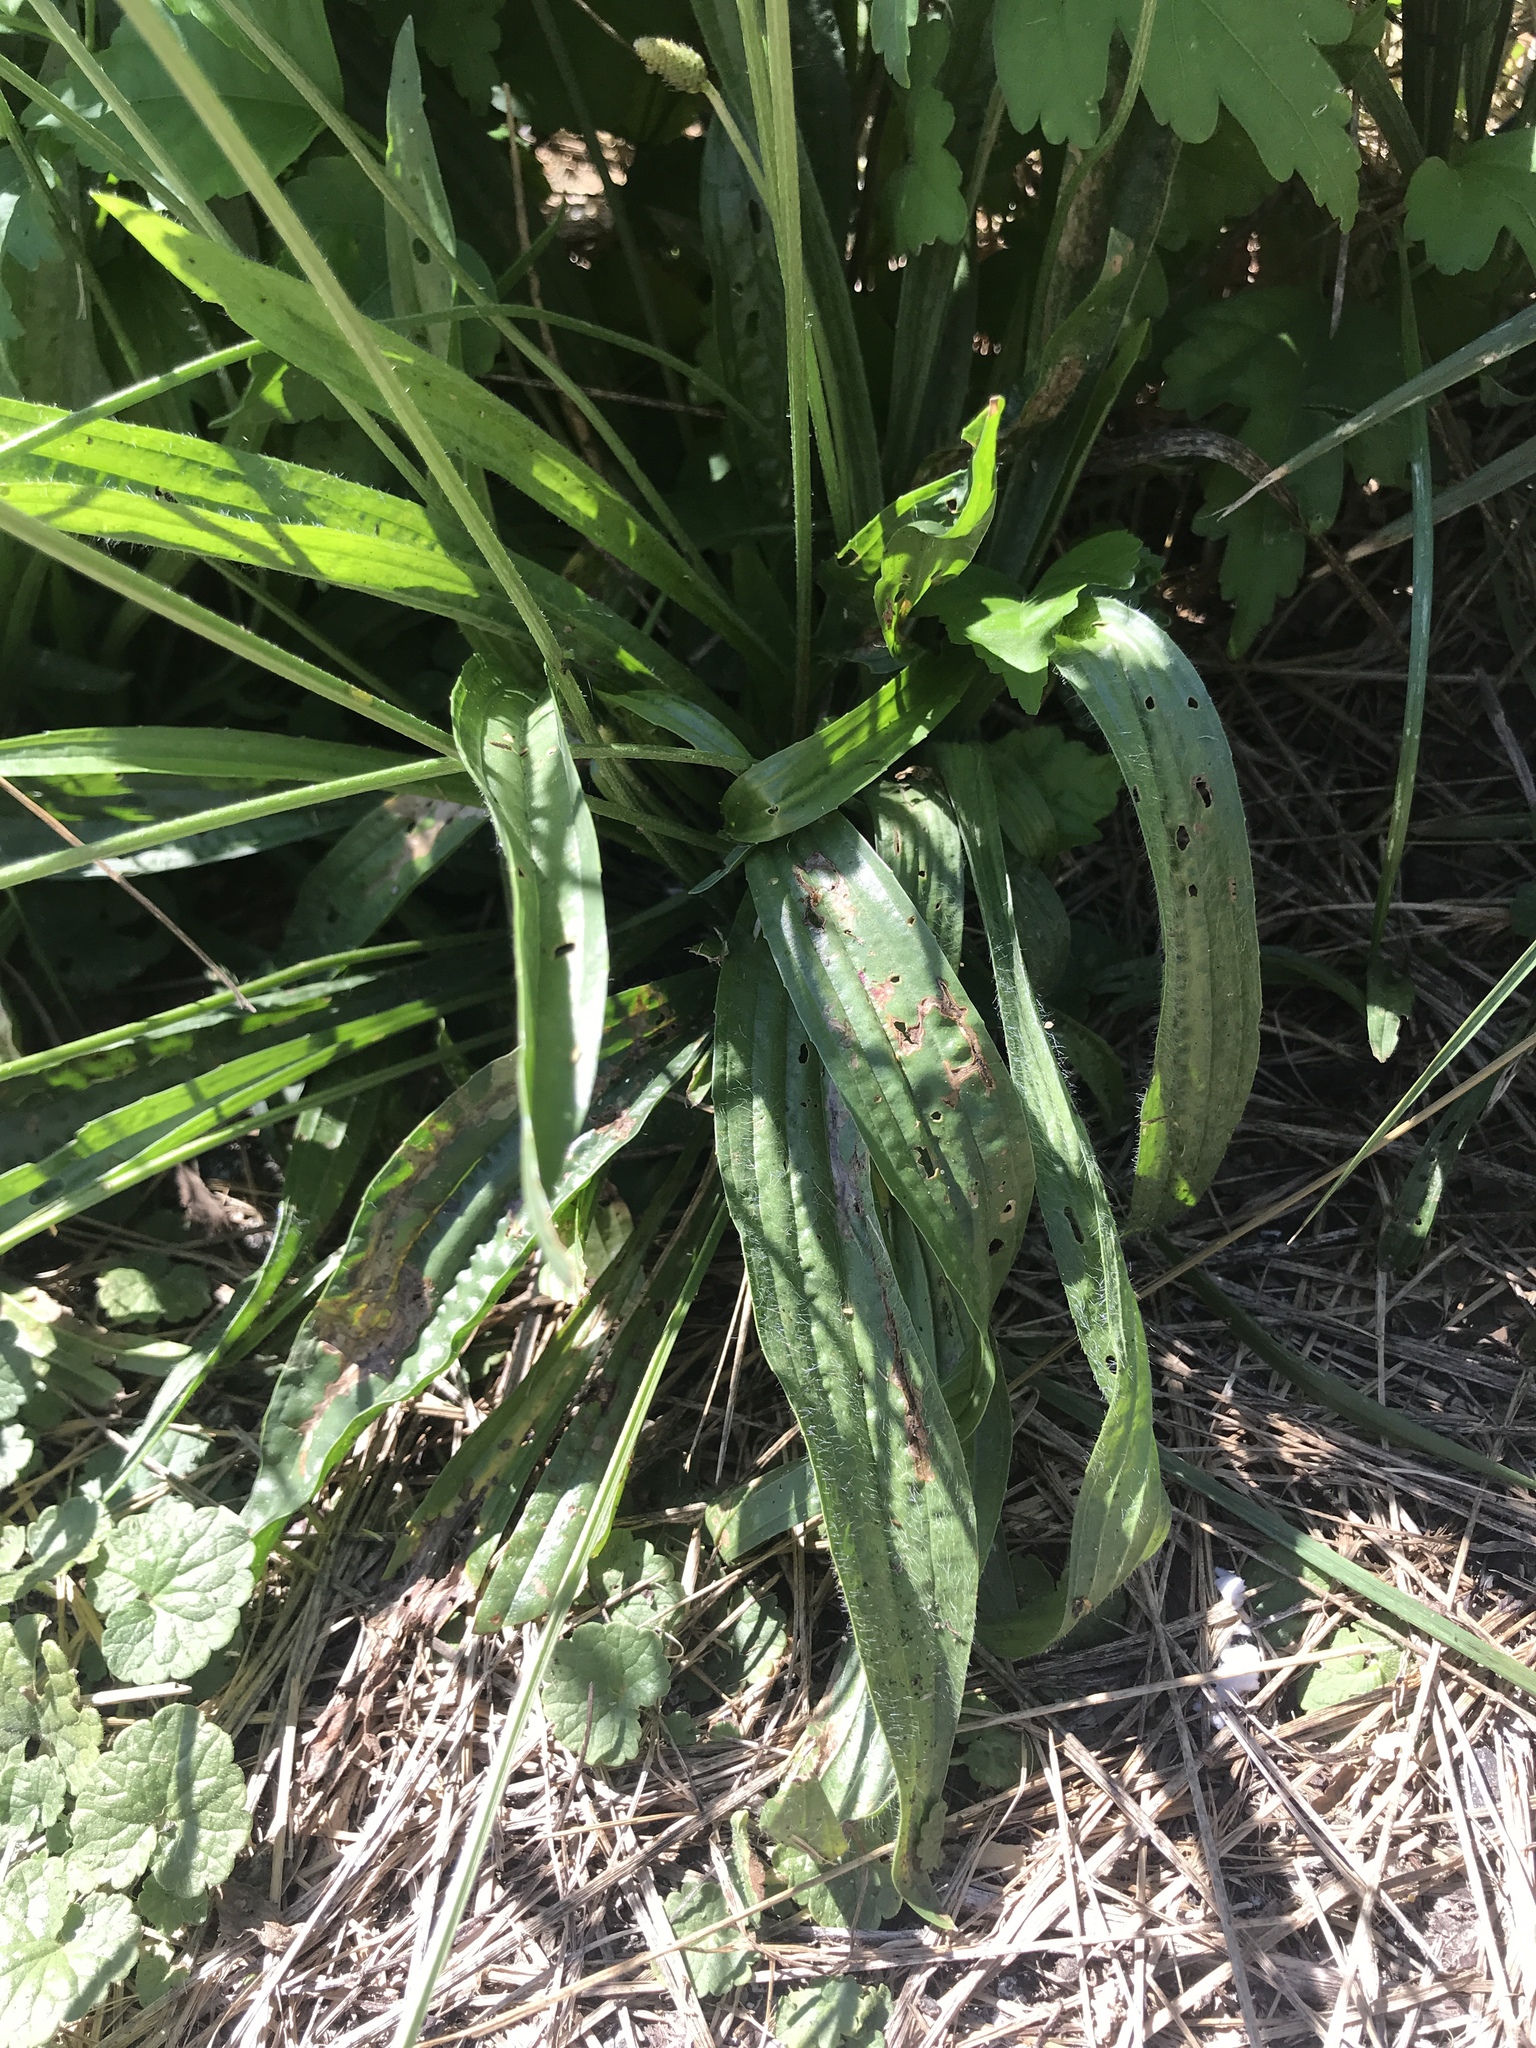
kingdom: Plantae
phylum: Tracheophyta
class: Magnoliopsida
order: Lamiales
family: Plantaginaceae
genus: Plantago
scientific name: Plantago lanceolata
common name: Ribwort plantain
